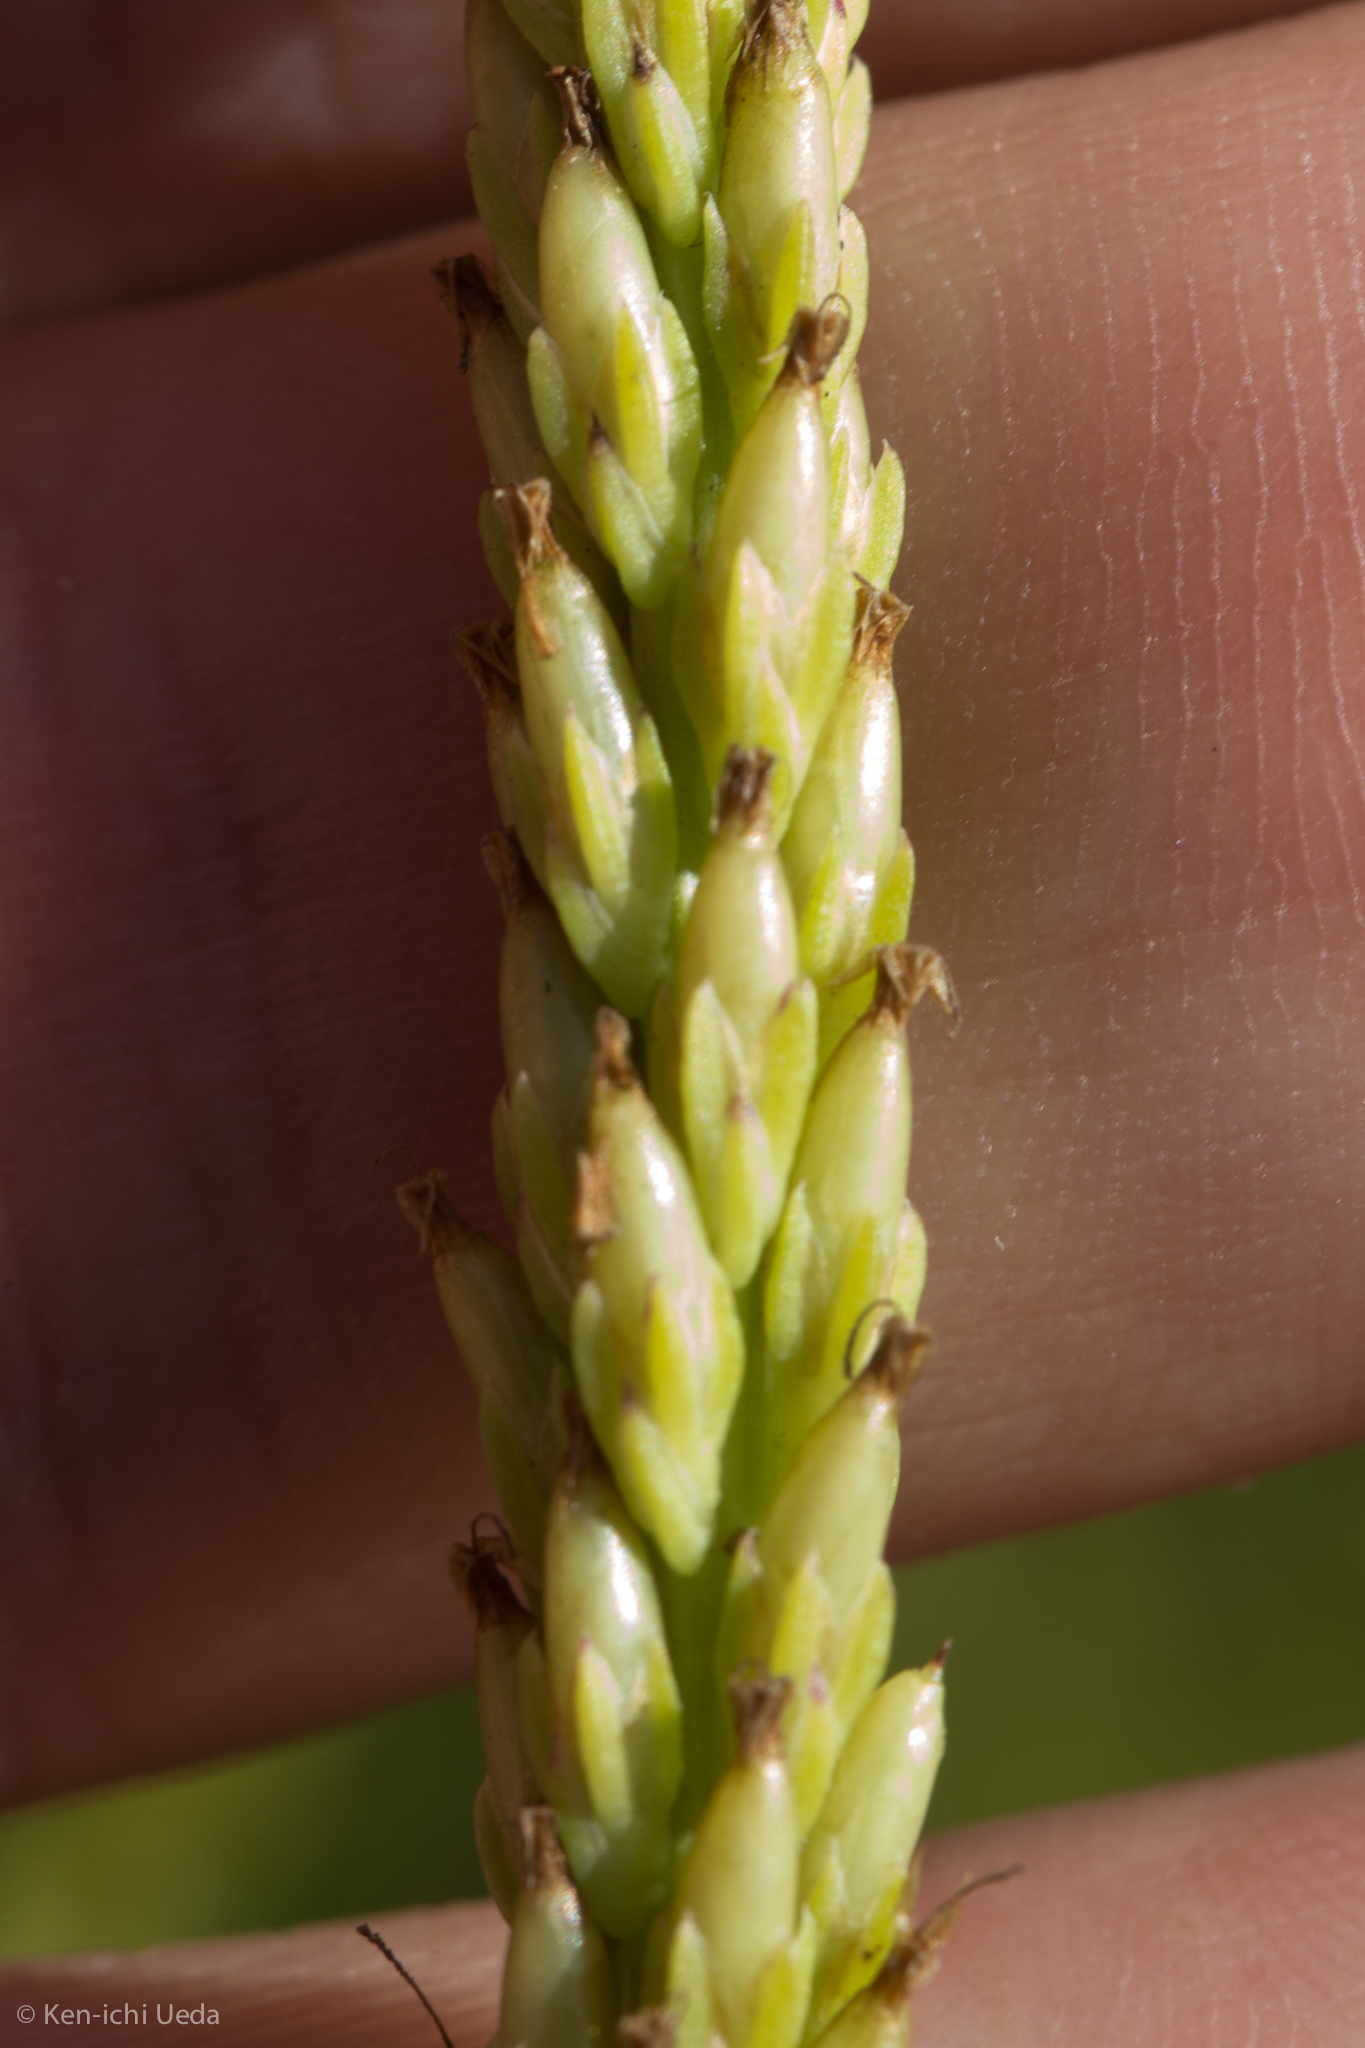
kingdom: Plantae
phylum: Tracheophyta
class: Magnoliopsida
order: Lamiales
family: Plantaginaceae
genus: Plantago
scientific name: Plantago rugelii
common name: American plantain
